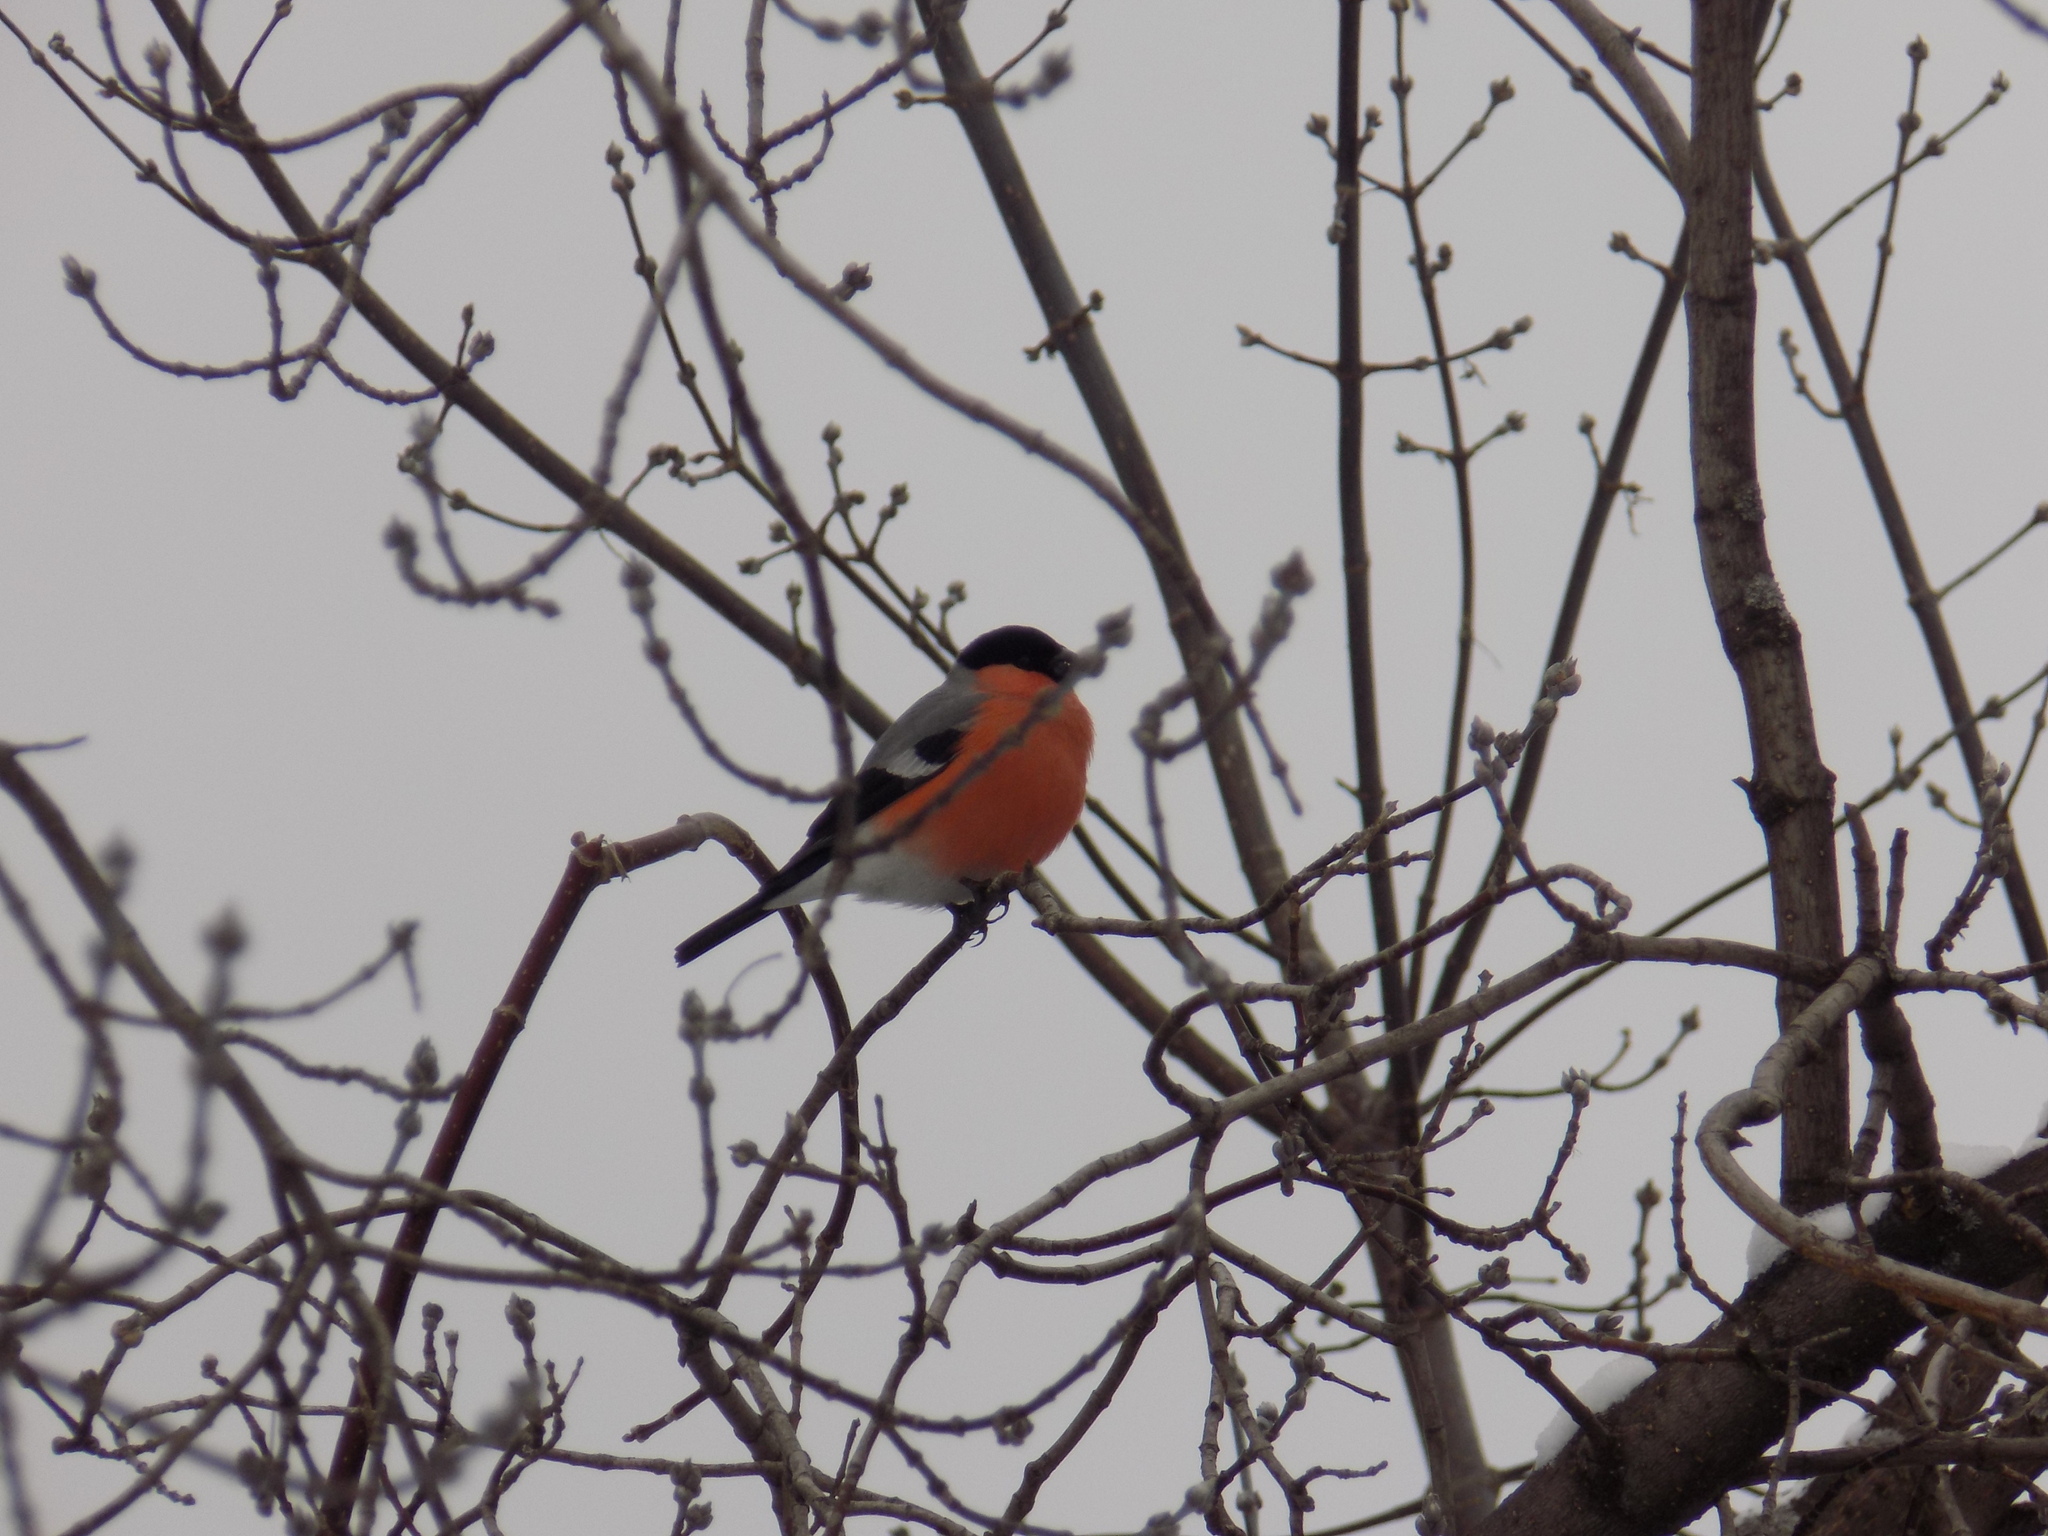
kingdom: Animalia
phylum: Chordata
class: Aves
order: Passeriformes
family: Fringillidae
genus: Pyrrhula
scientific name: Pyrrhula pyrrhula
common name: Eurasian bullfinch
